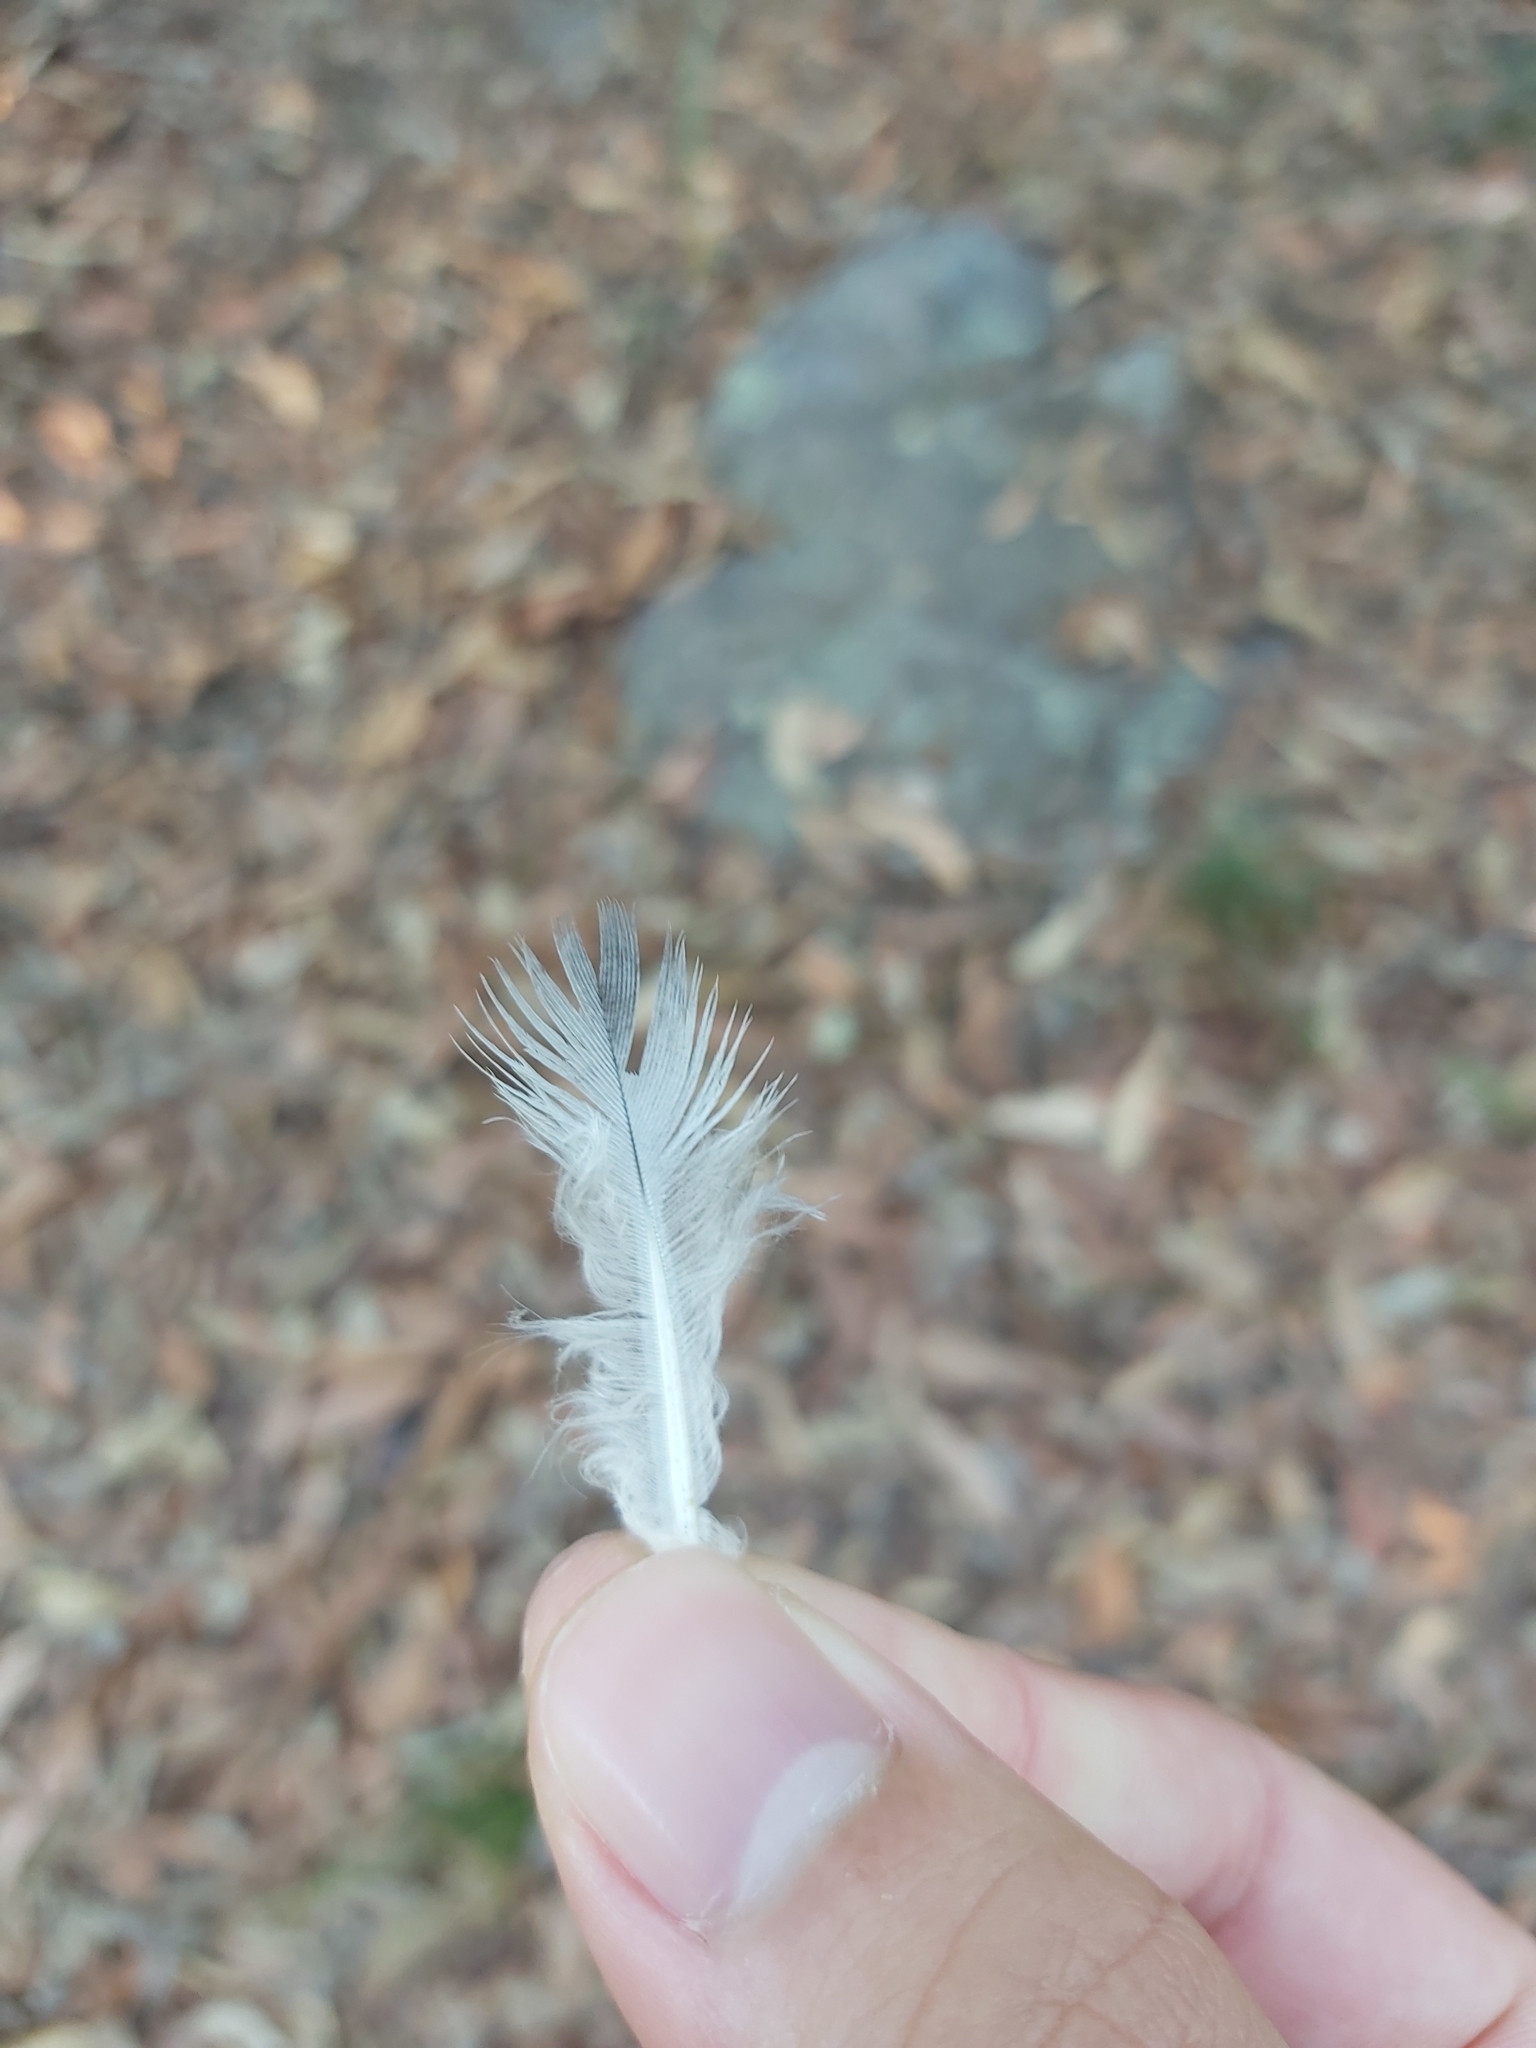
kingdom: Animalia
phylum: Chordata
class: Aves
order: Columbiformes
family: Columbidae
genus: Columba
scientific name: Columba livia
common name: Rock pigeon
